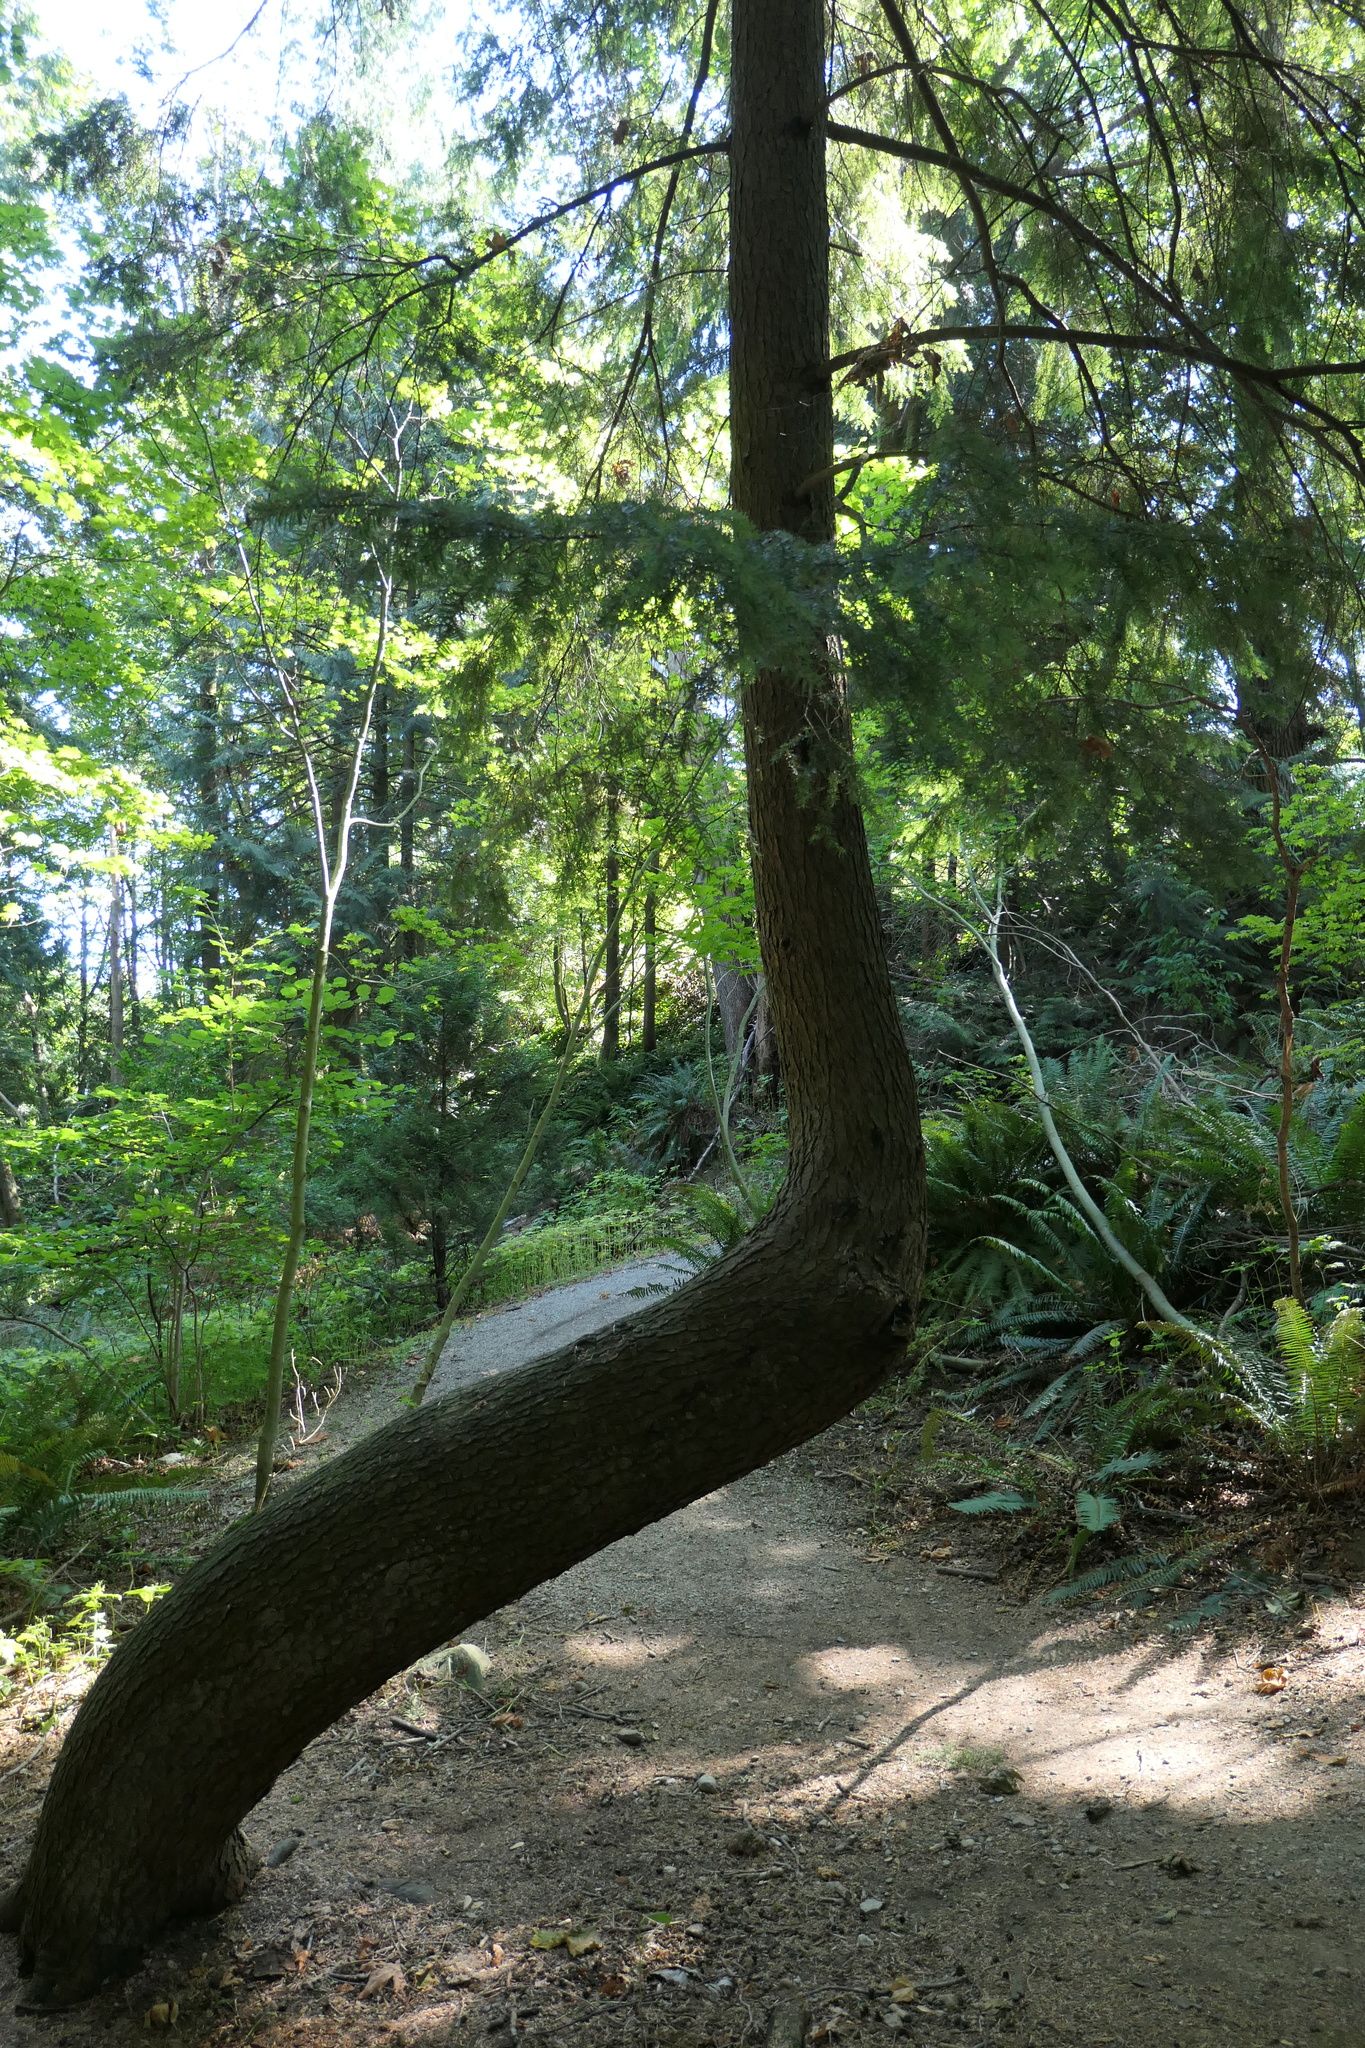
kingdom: Plantae
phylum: Tracheophyta
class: Pinopsida
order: Pinales
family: Pinaceae
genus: Tsuga
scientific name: Tsuga heterophylla
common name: Western hemlock
